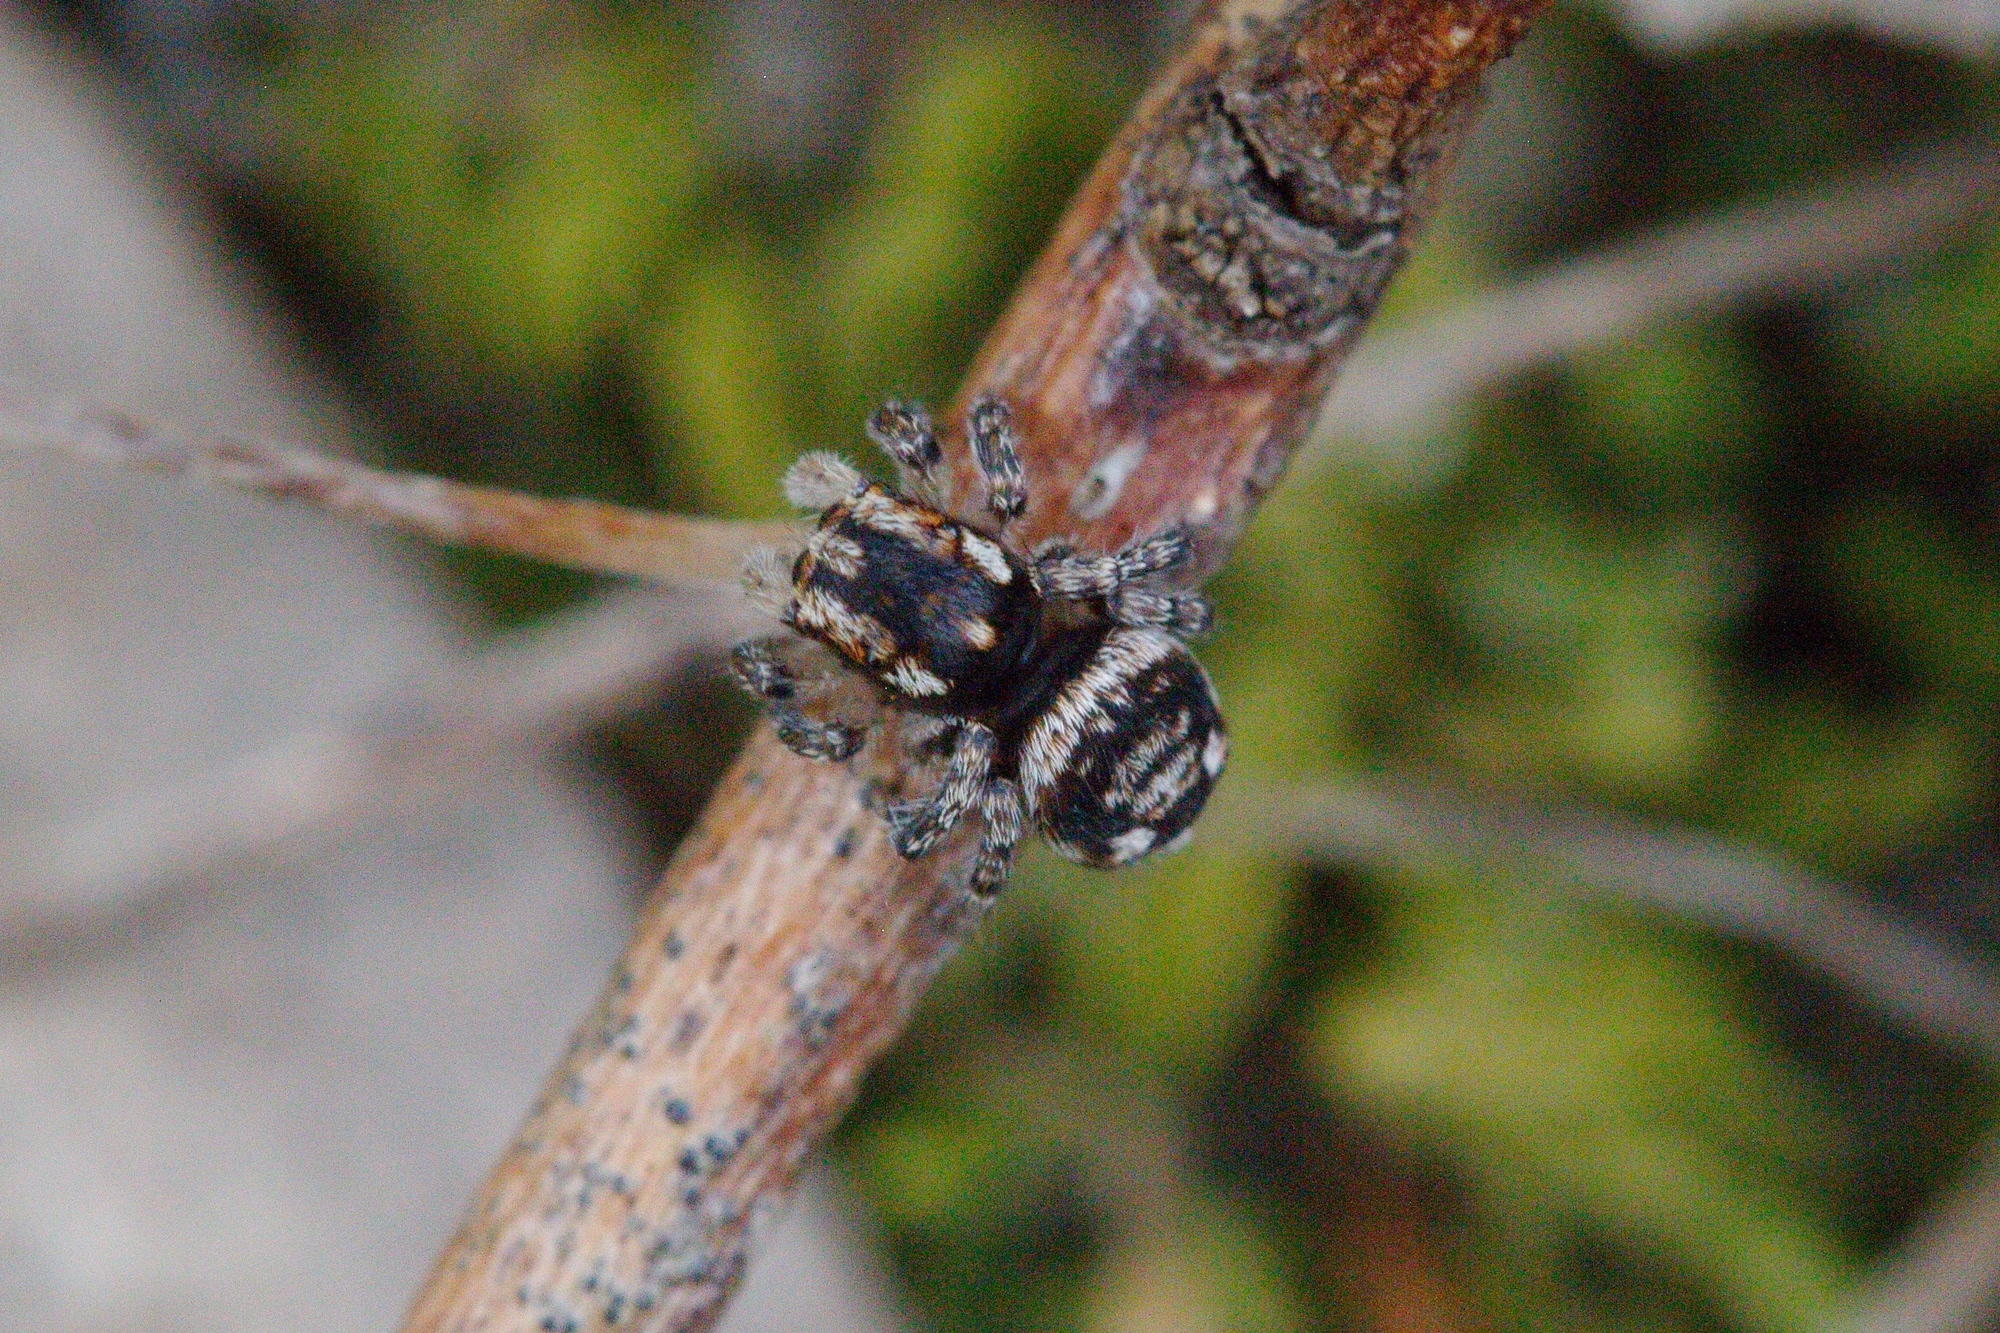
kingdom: Animalia
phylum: Arthropoda
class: Arachnida
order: Araneae
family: Salticidae
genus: Maratus
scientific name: Maratus plumosus
